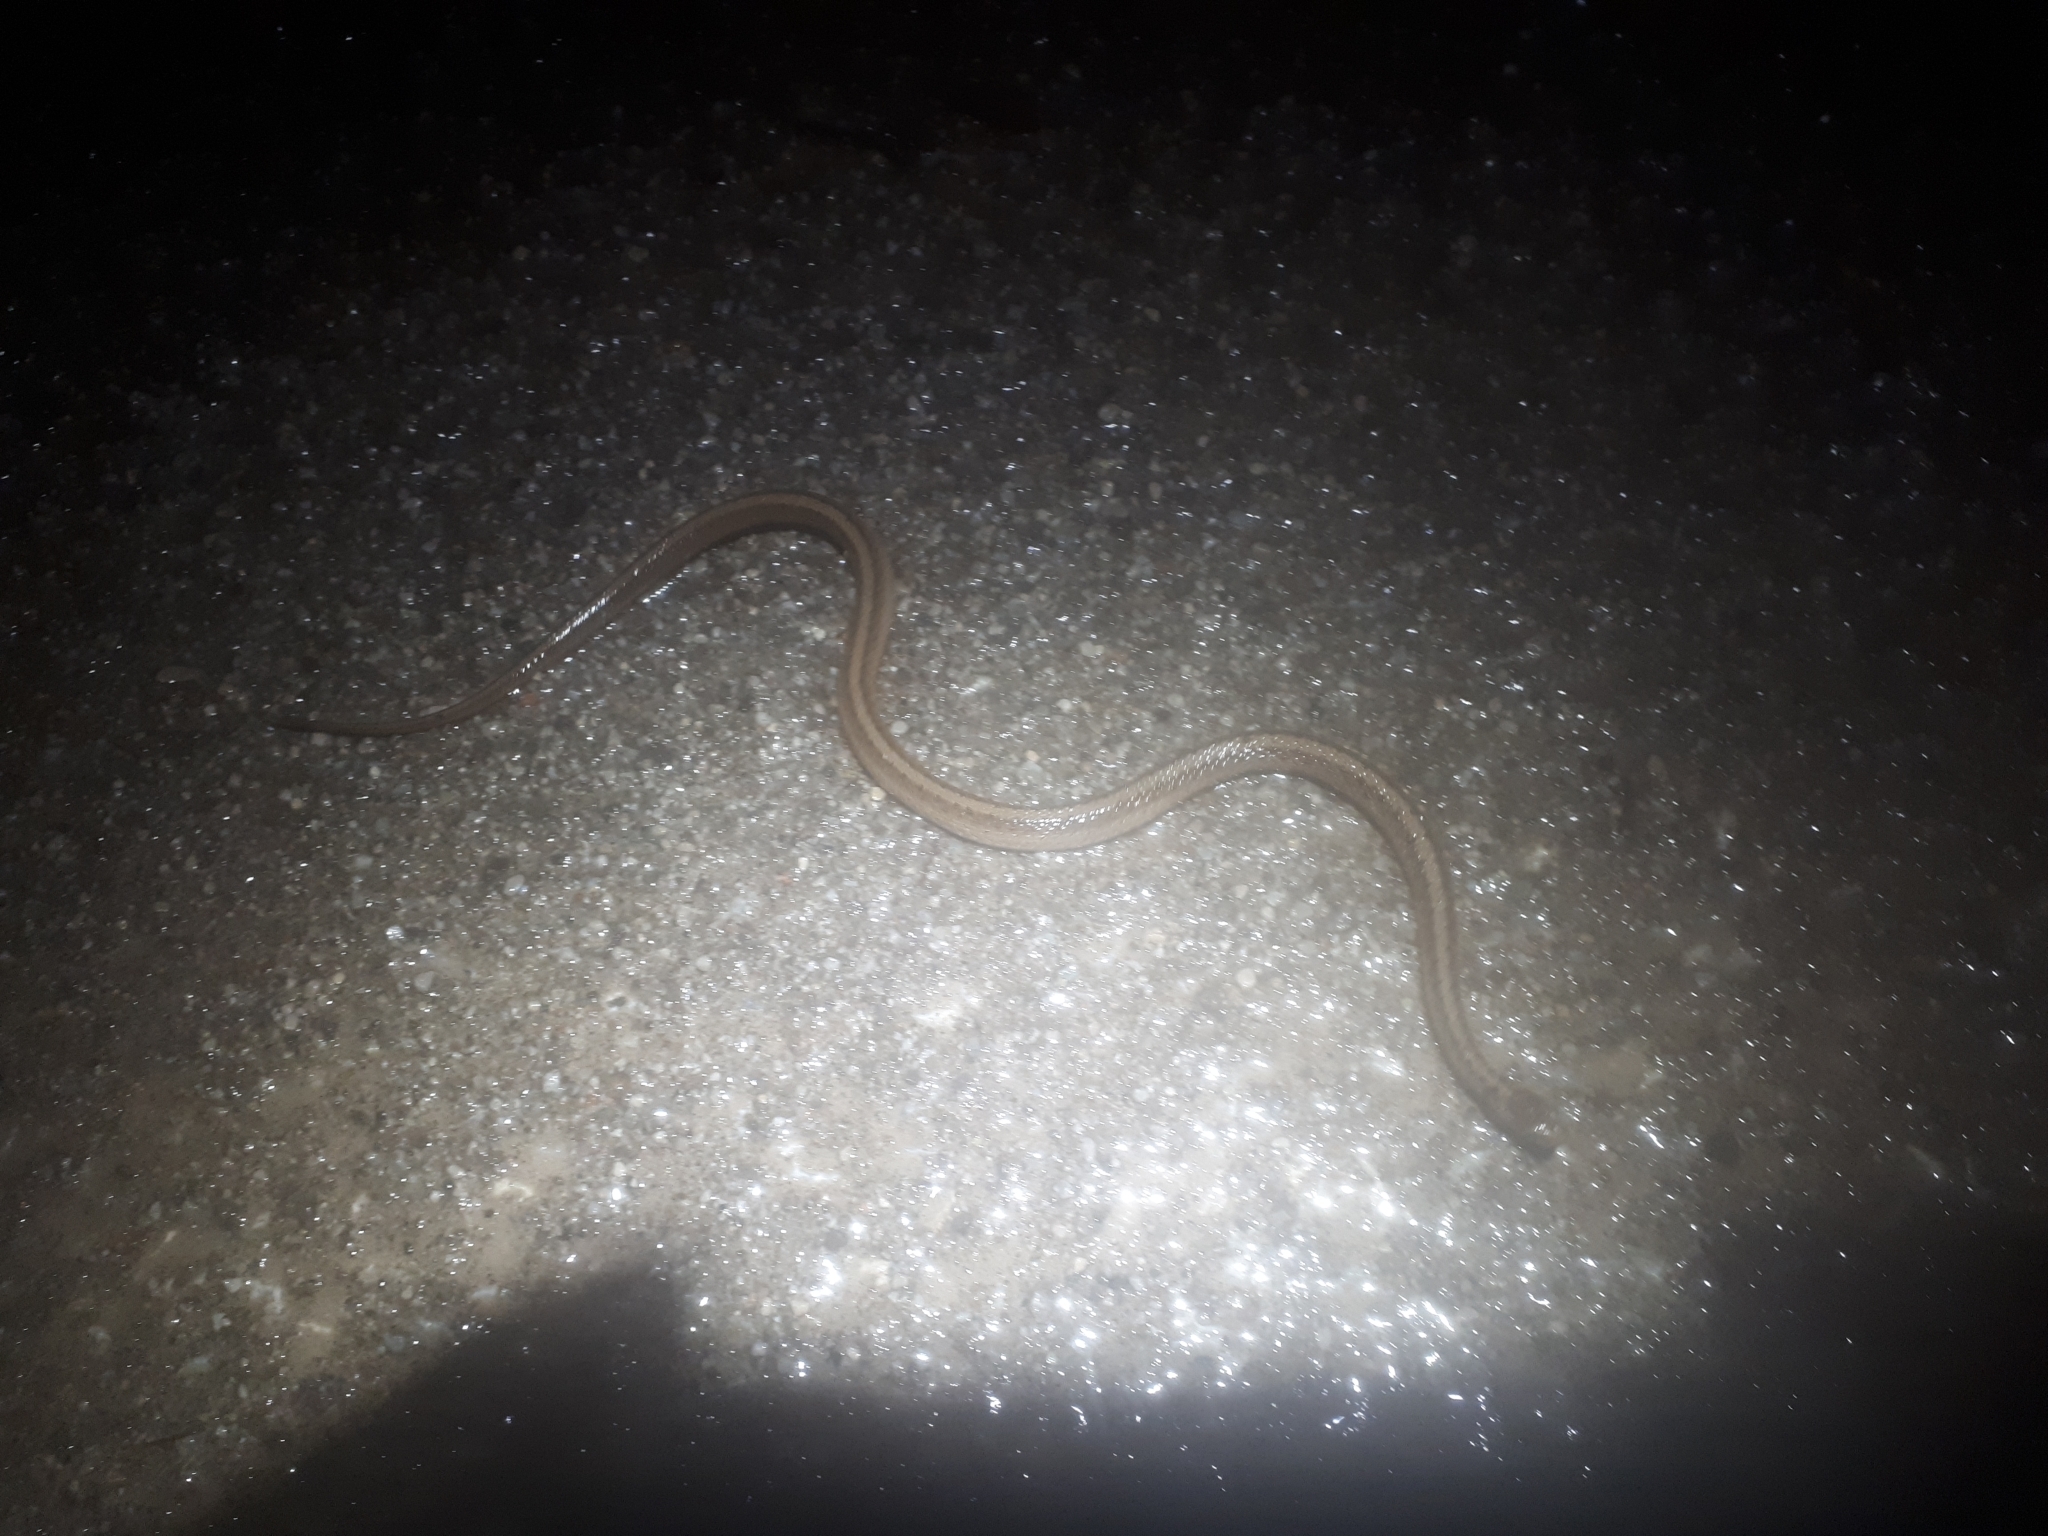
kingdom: Animalia
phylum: Chordata
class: Squamata
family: Colubridae
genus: Storeria
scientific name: Storeria dekayi
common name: (dekay’s) brown snake
